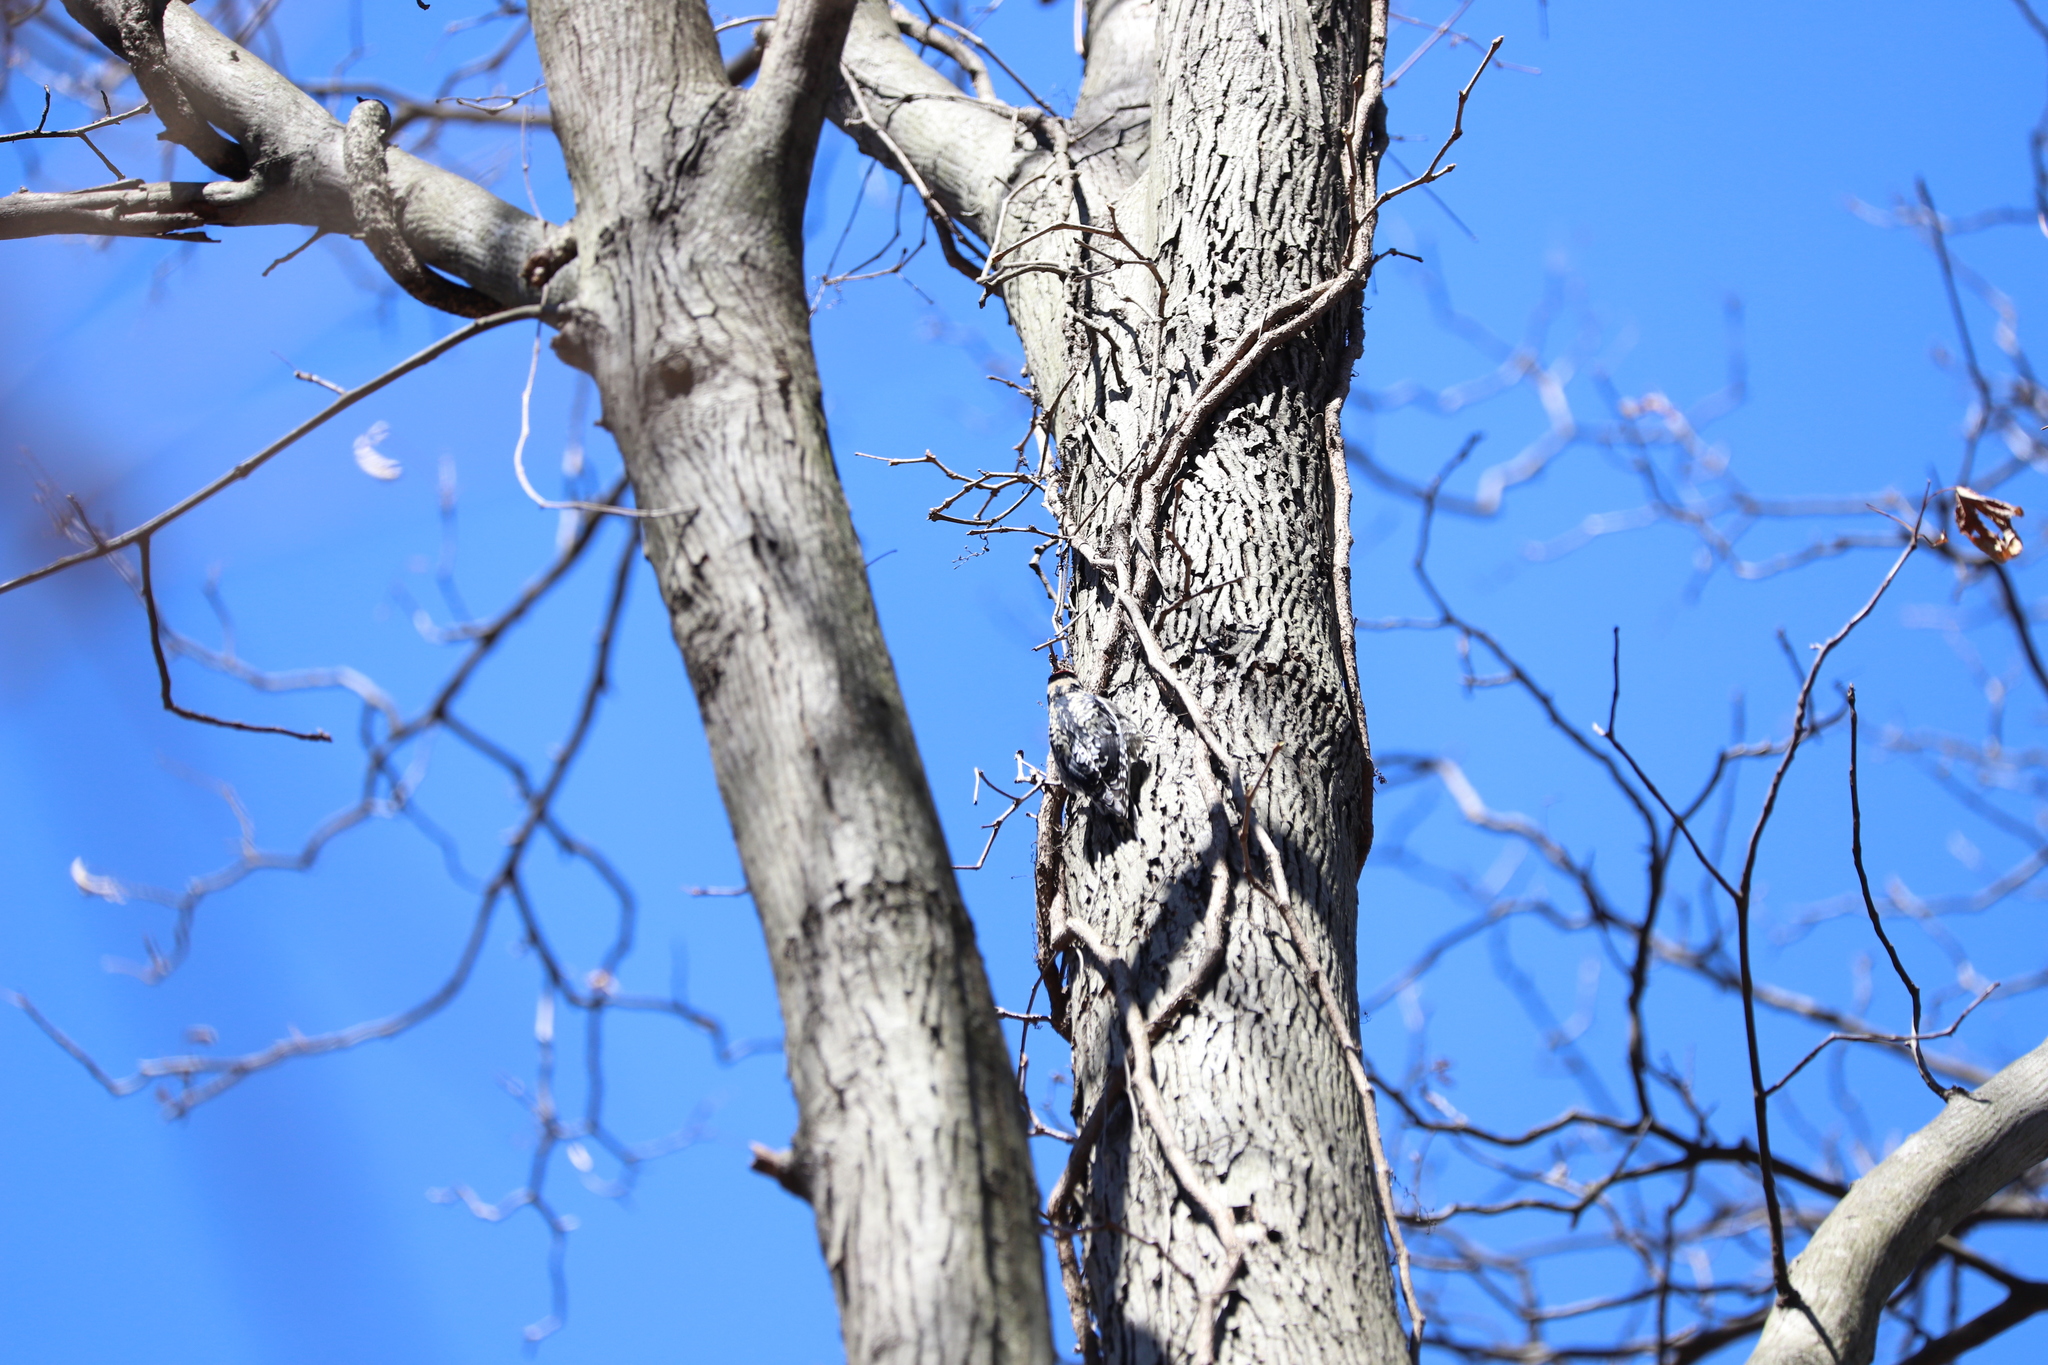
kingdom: Animalia
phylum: Chordata
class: Aves
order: Piciformes
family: Picidae
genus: Sphyrapicus
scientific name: Sphyrapicus varius
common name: Yellow-bellied sapsucker
